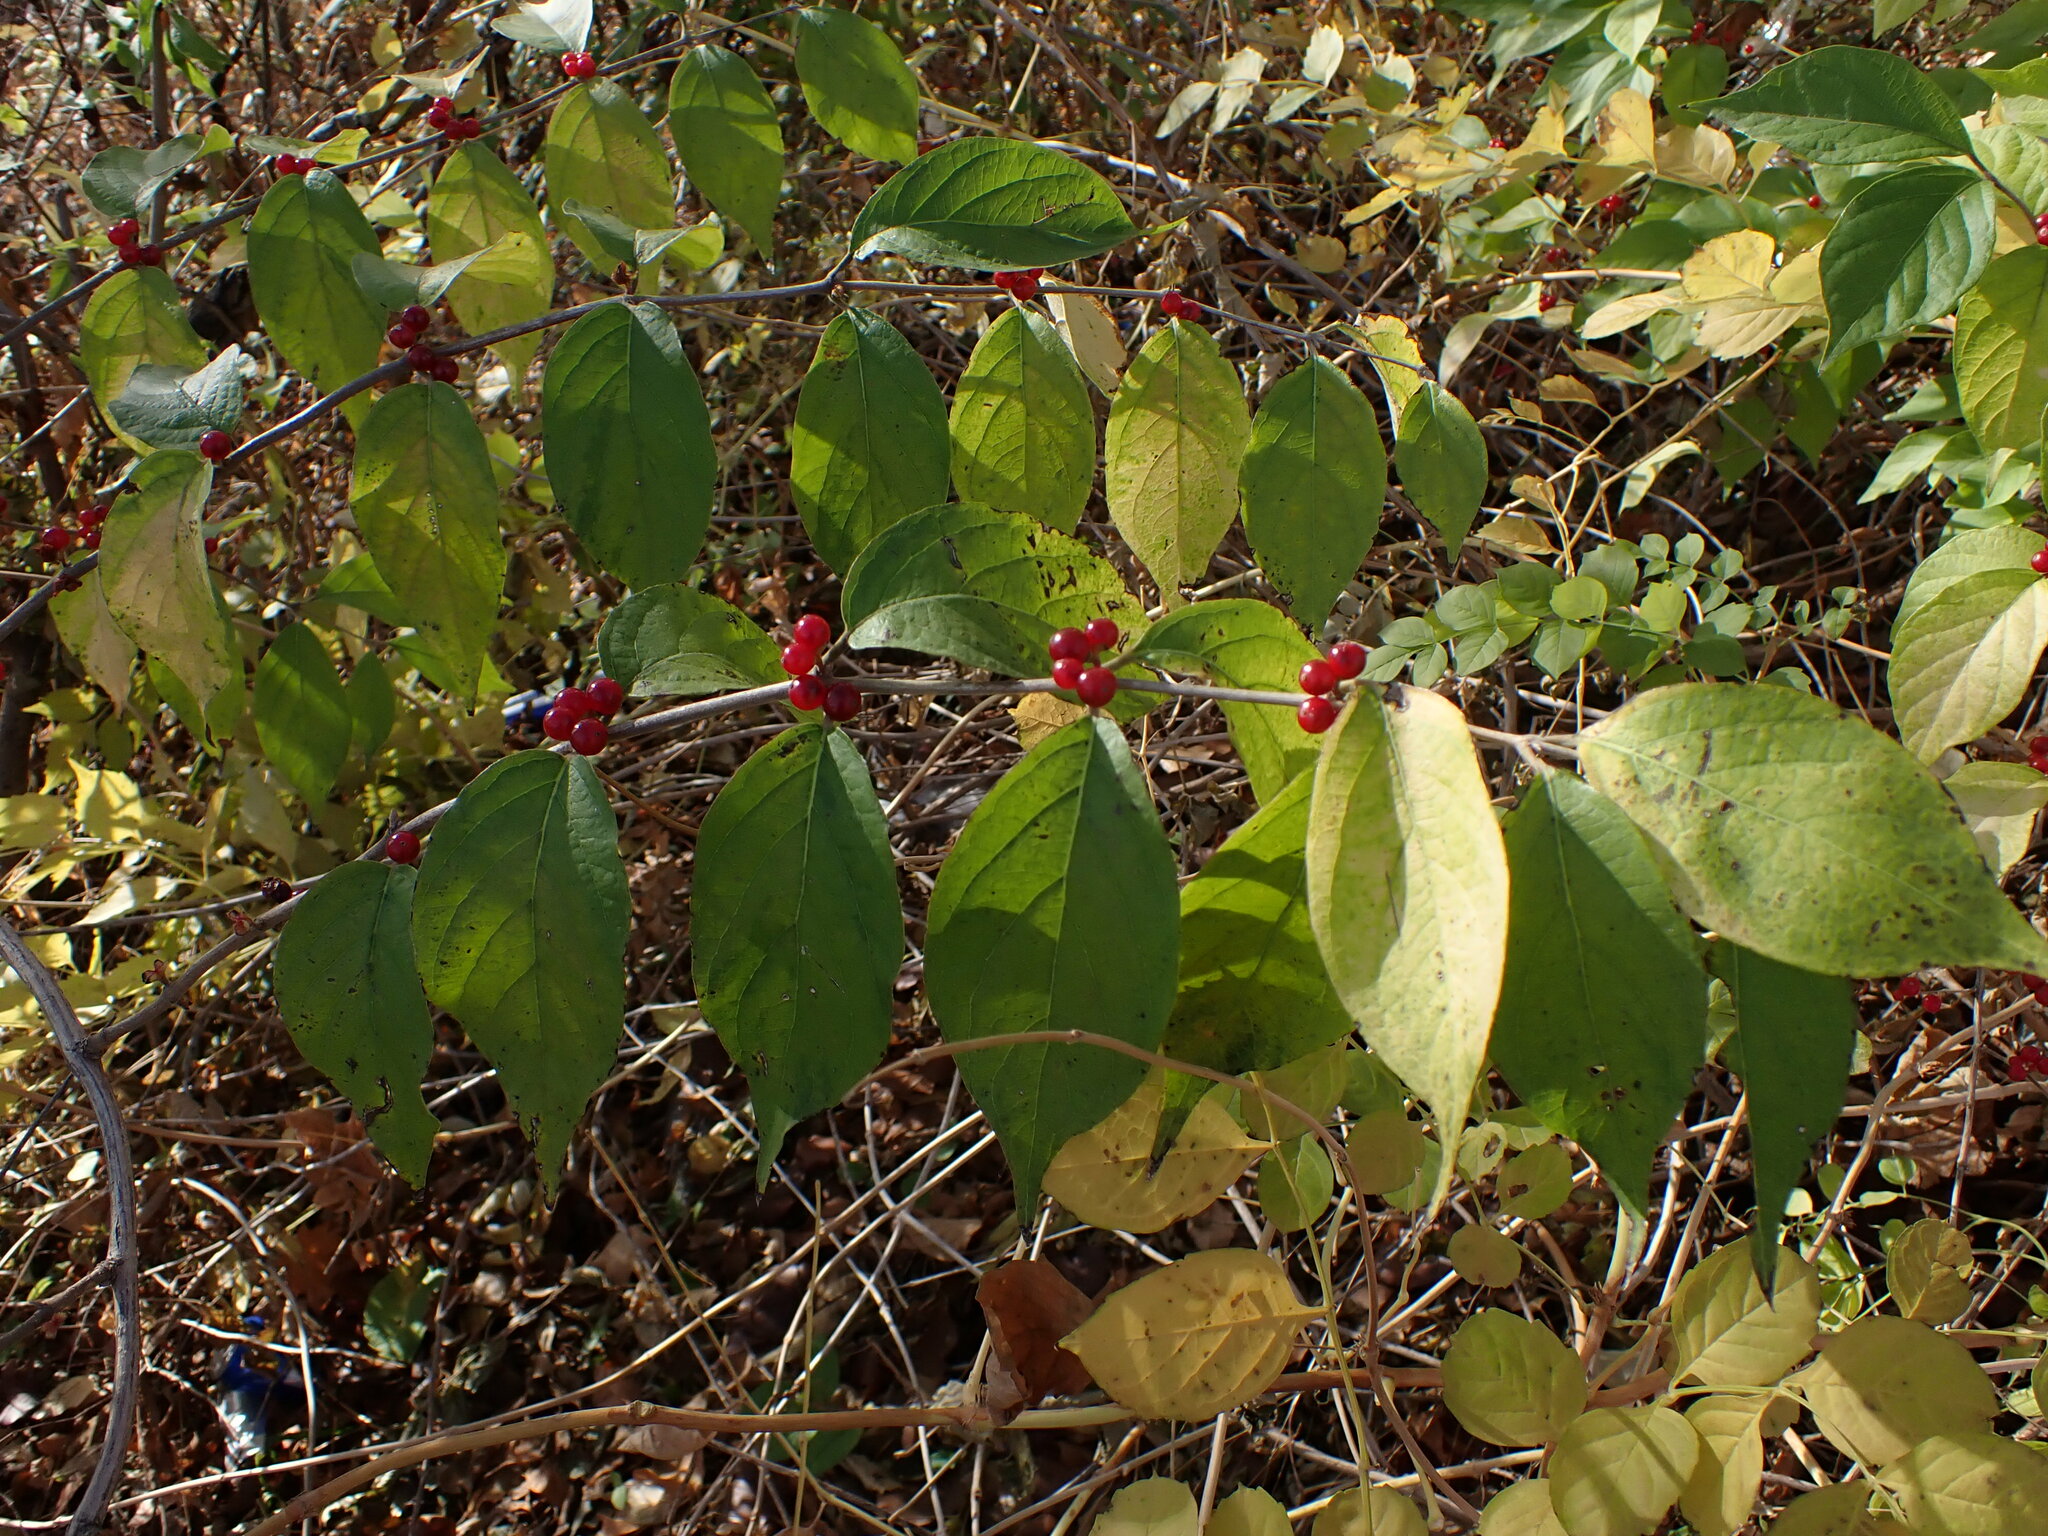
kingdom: Plantae
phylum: Tracheophyta
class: Magnoliopsida
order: Dipsacales
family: Caprifoliaceae
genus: Lonicera
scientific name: Lonicera maackii
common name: Amur honeysuckle
